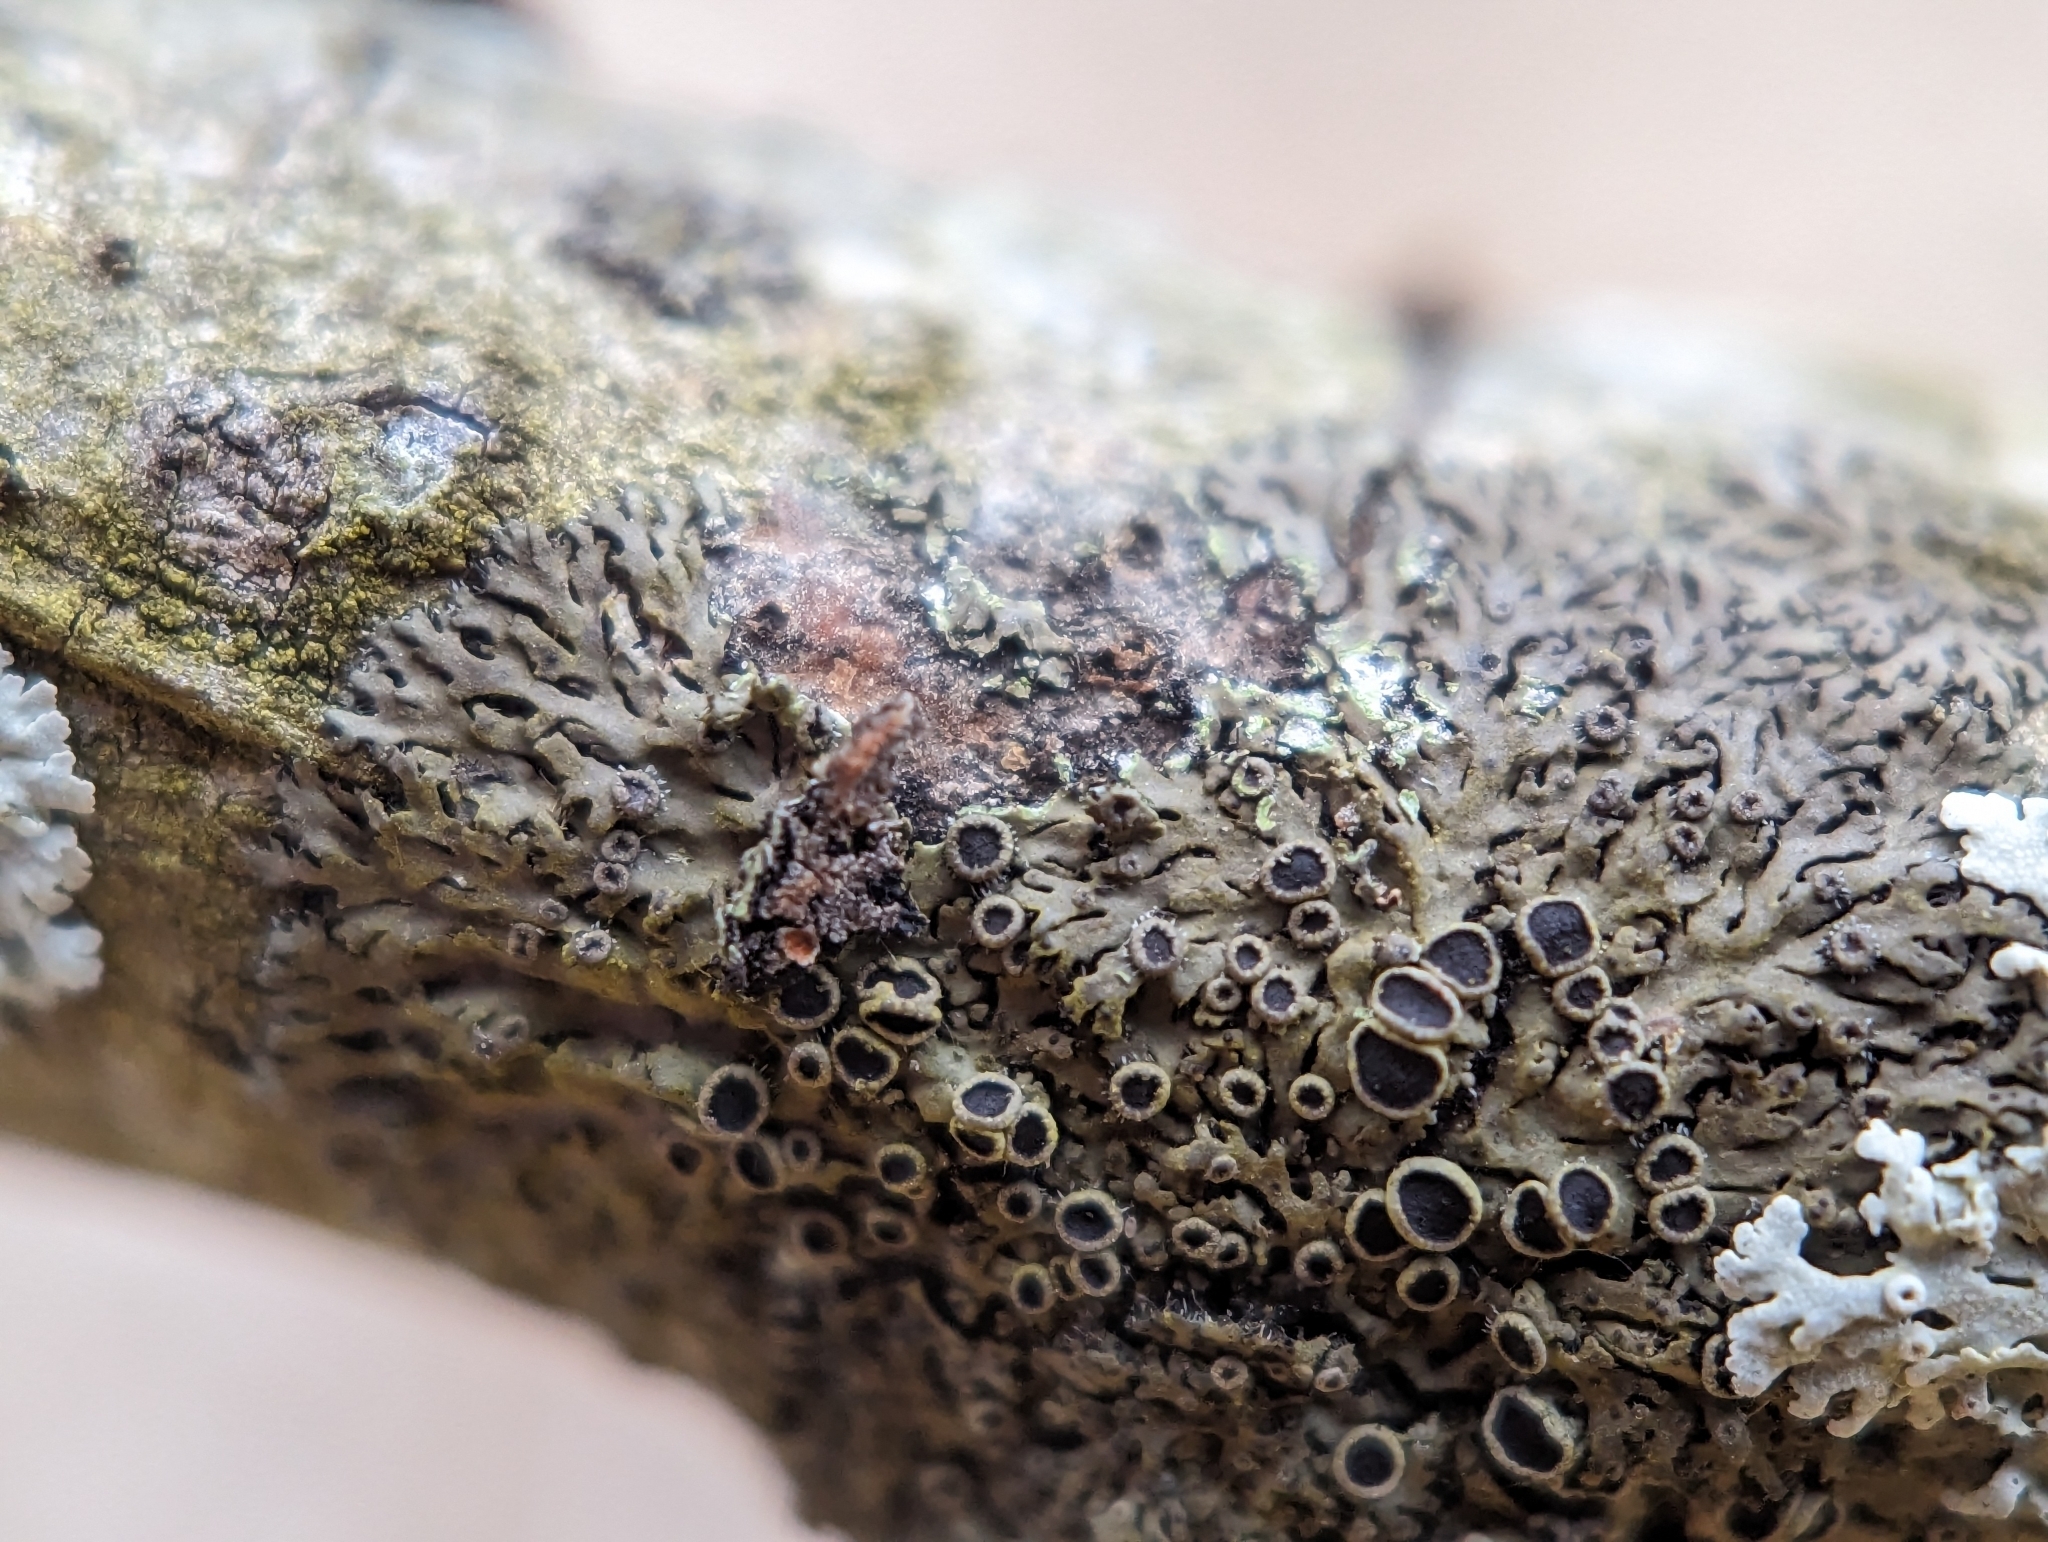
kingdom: Fungi
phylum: Ascomycota
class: Lecanoromycetes
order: Caliciales
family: Physciaceae
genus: Phaeophyscia
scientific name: Phaeophyscia ciliata
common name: Smooth shadow lichen
